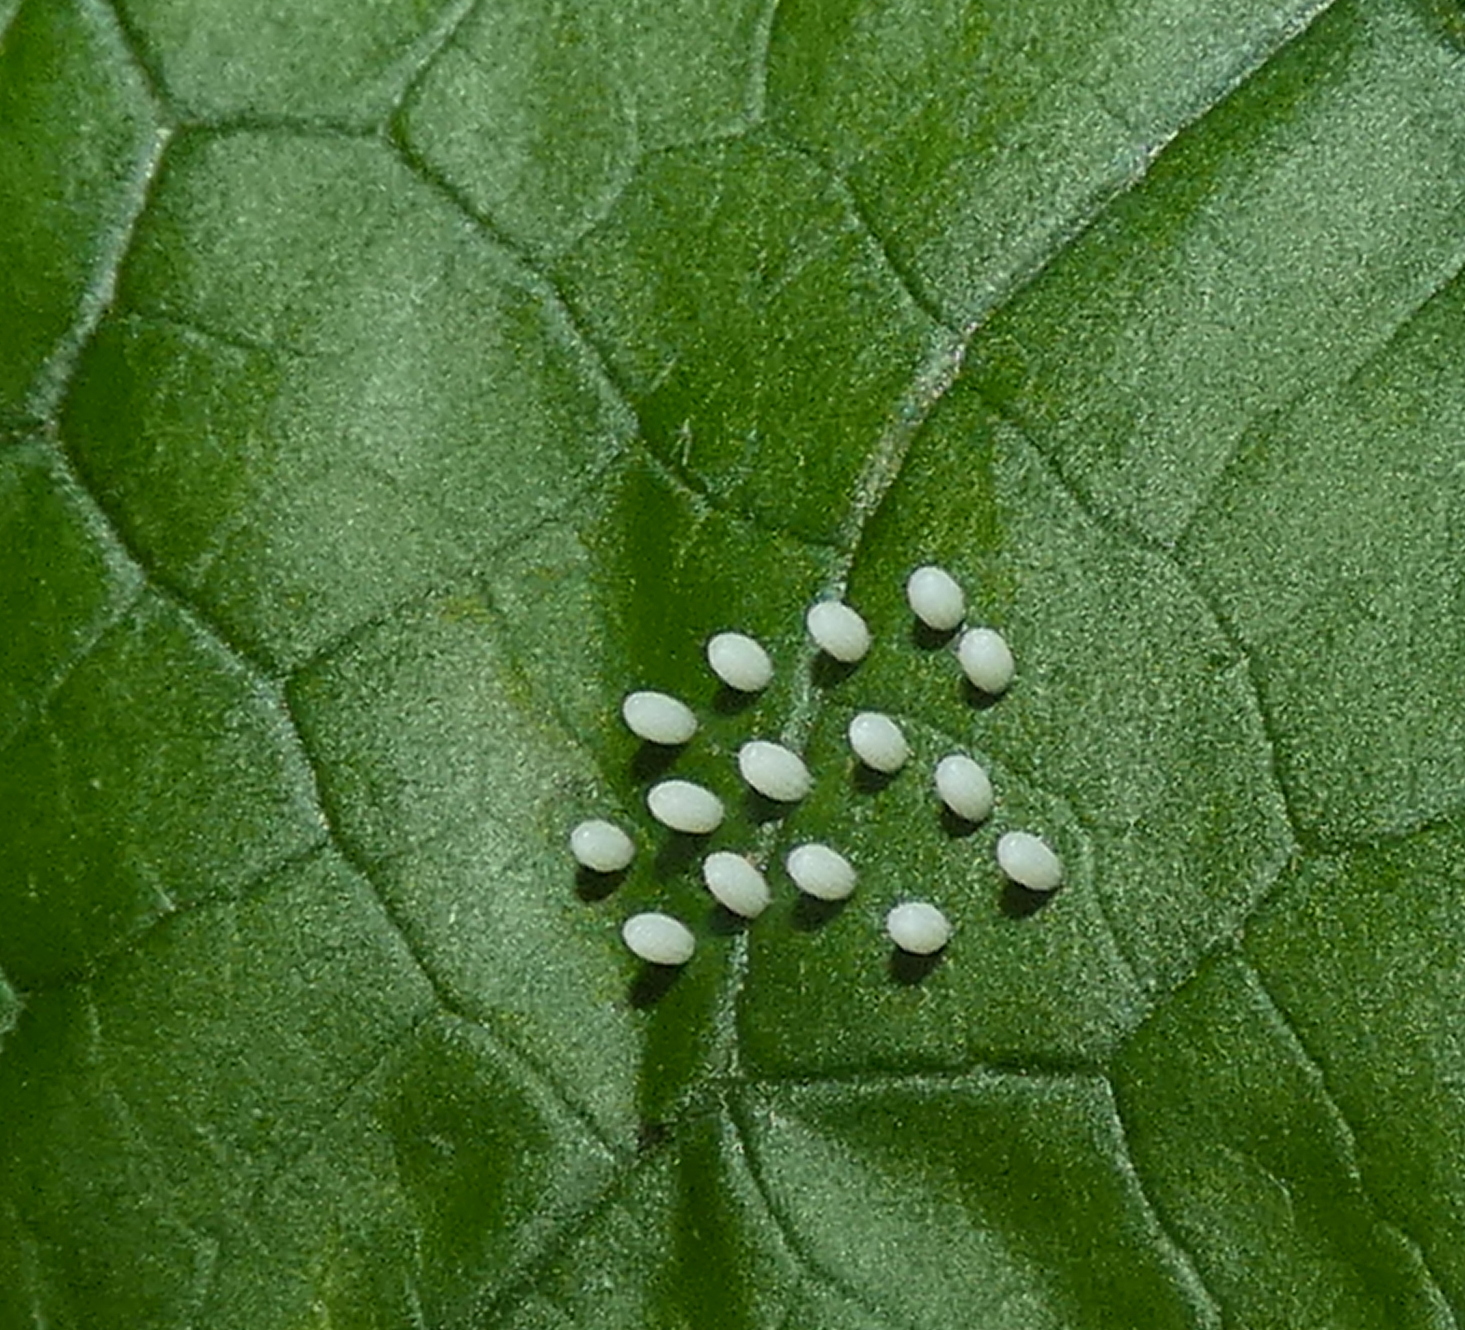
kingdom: Animalia
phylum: Arthropoda
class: Insecta
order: Lepidoptera
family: Nymphalidae
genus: Mechanitis
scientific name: Mechanitis lysimnia
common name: Lysimnia tigerwing
